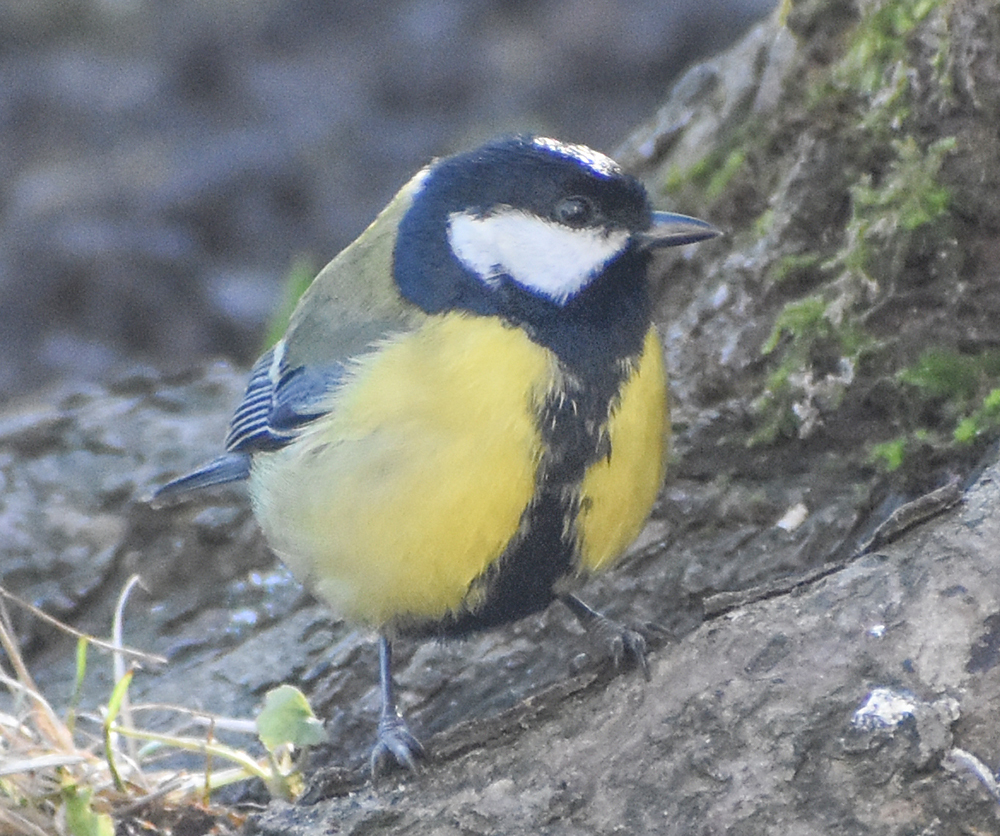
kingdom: Animalia
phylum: Chordata
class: Aves
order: Passeriformes
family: Paridae
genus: Parus
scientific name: Parus major
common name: Great tit
